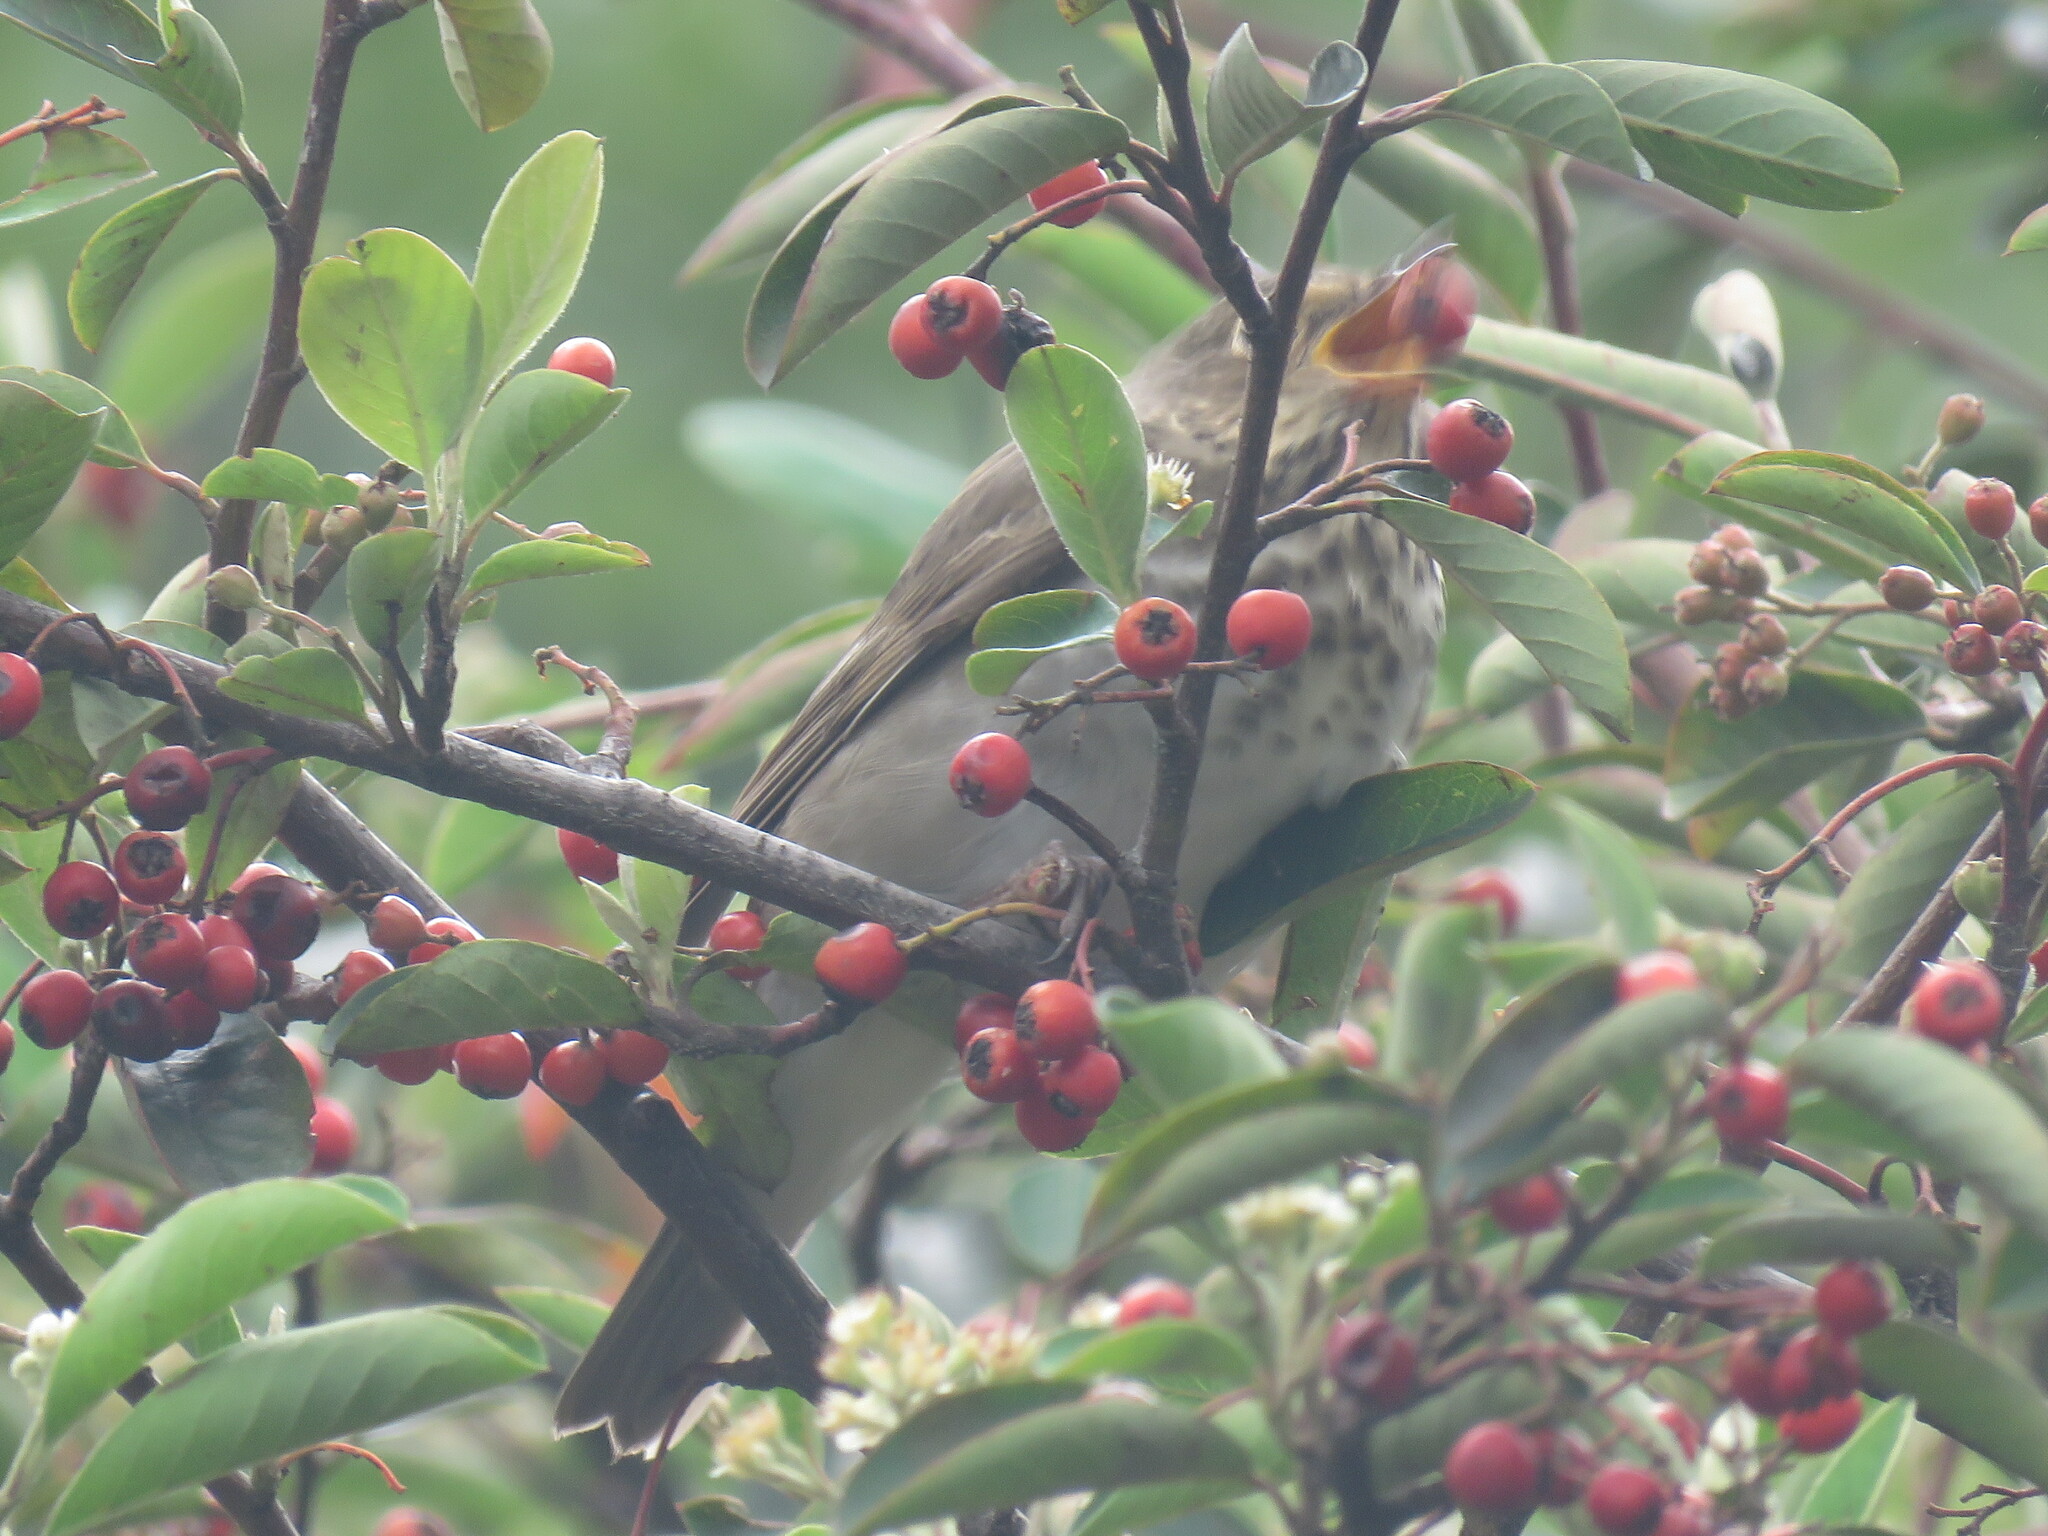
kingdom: Animalia
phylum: Chordata
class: Aves
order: Passeriformes
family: Turdidae
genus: Catharus
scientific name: Catharus ustulatus
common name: Swainson's thrush
